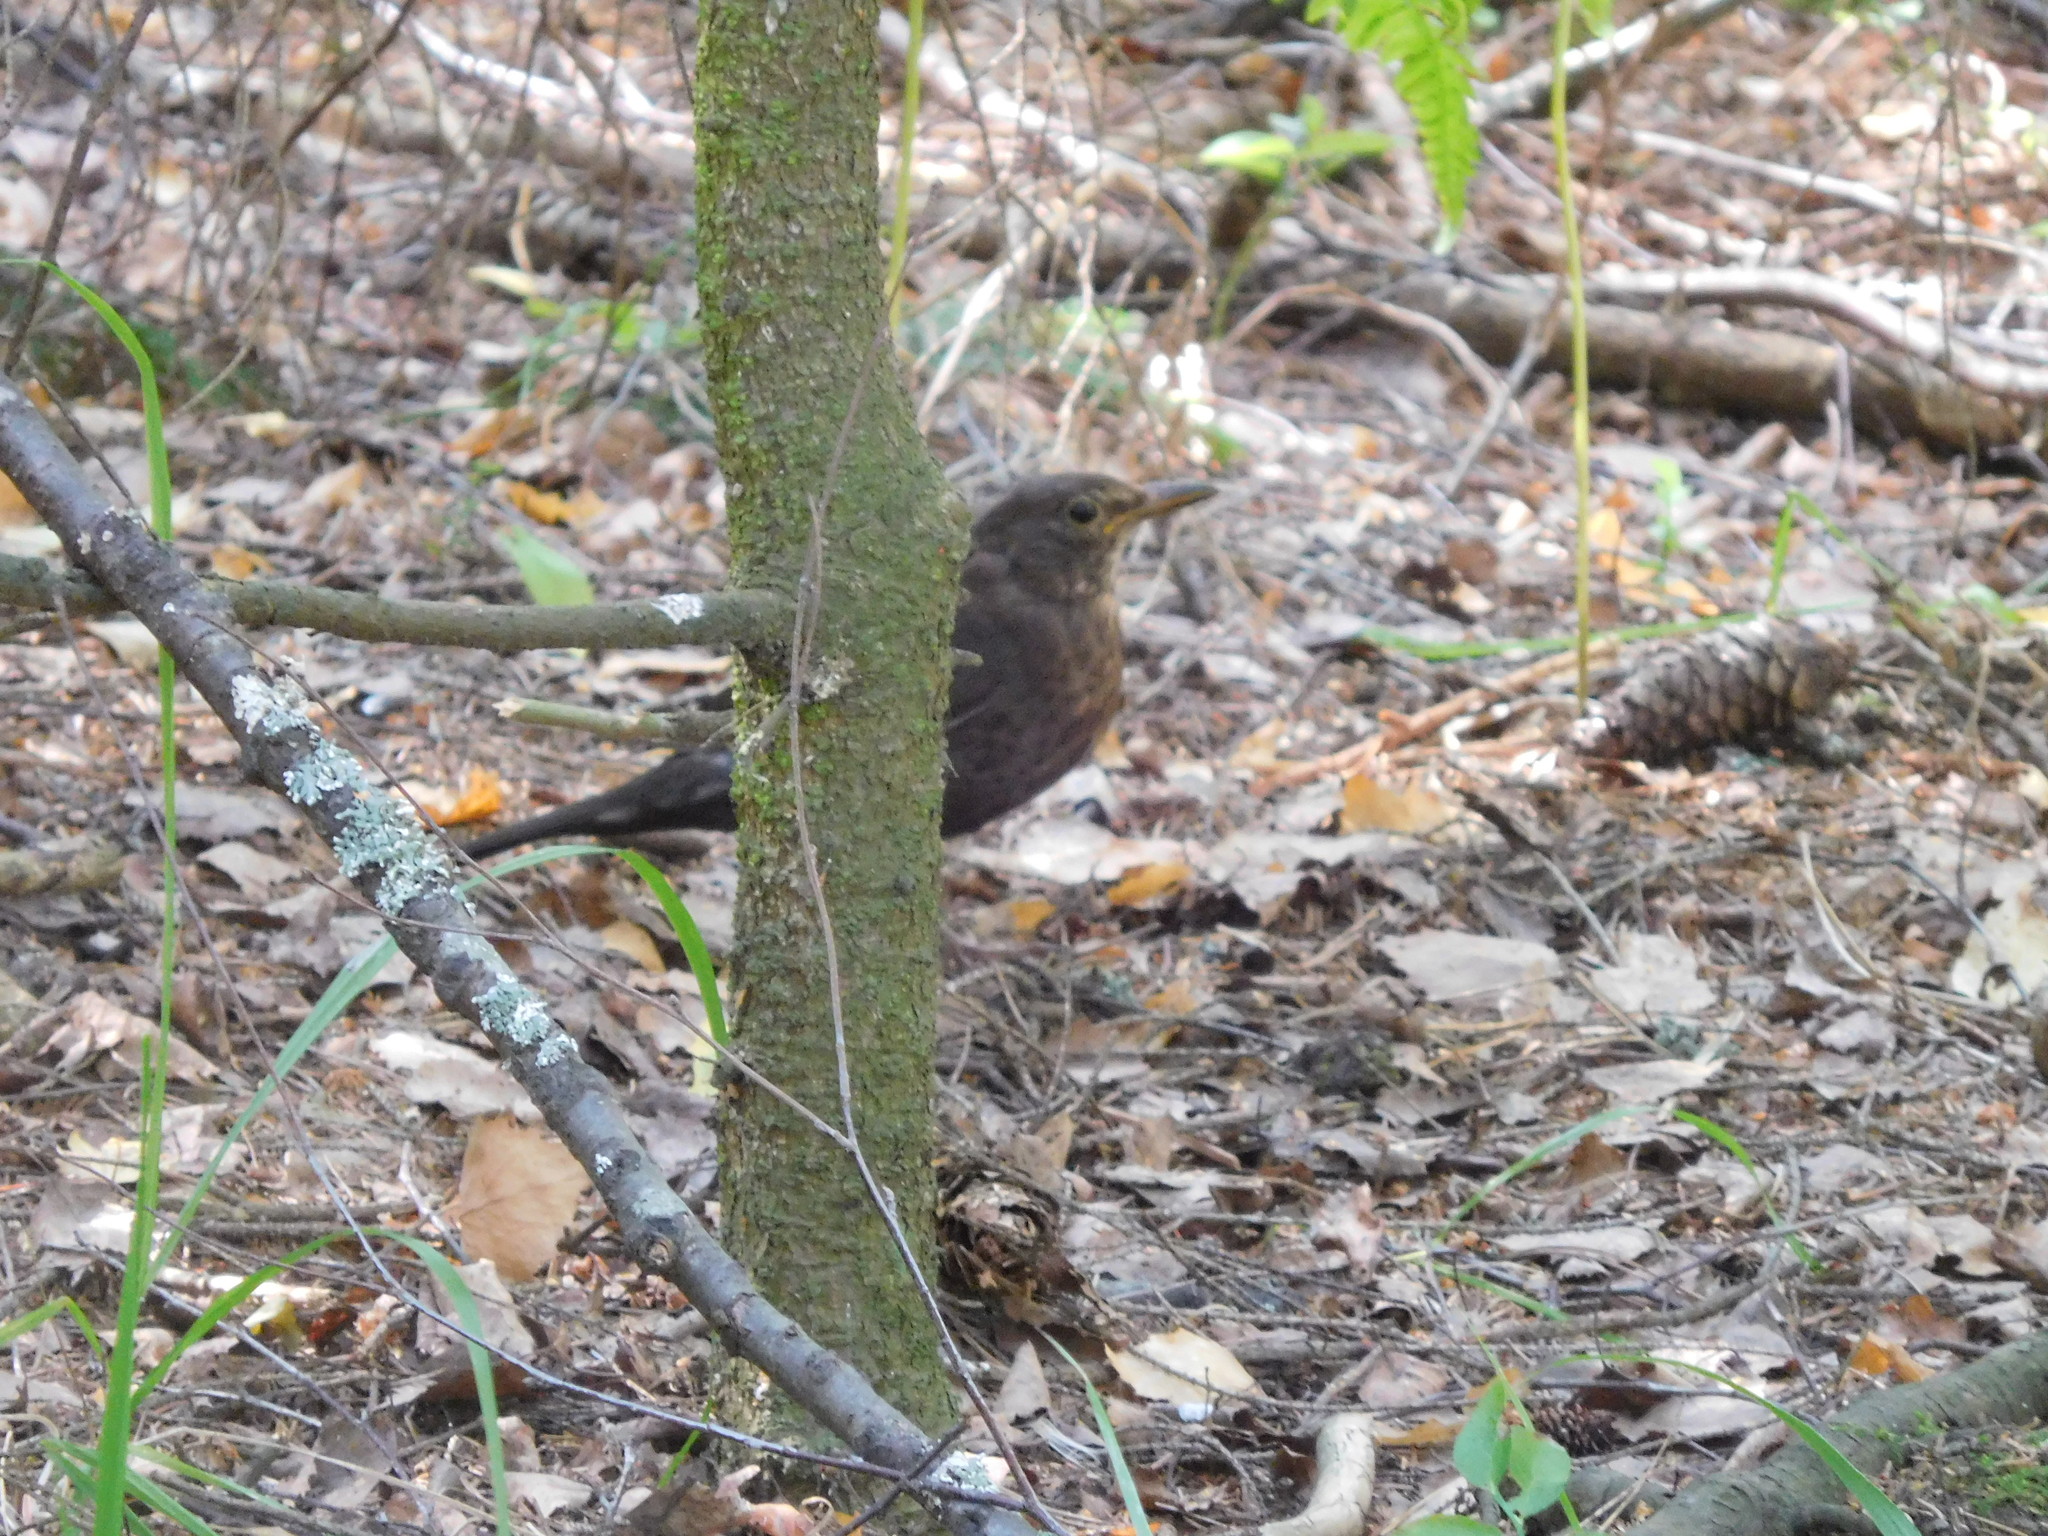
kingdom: Animalia
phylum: Chordata
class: Aves
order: Passeriformes
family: Turdidae
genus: Turdus
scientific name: Turdus merula
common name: Common blackbird
